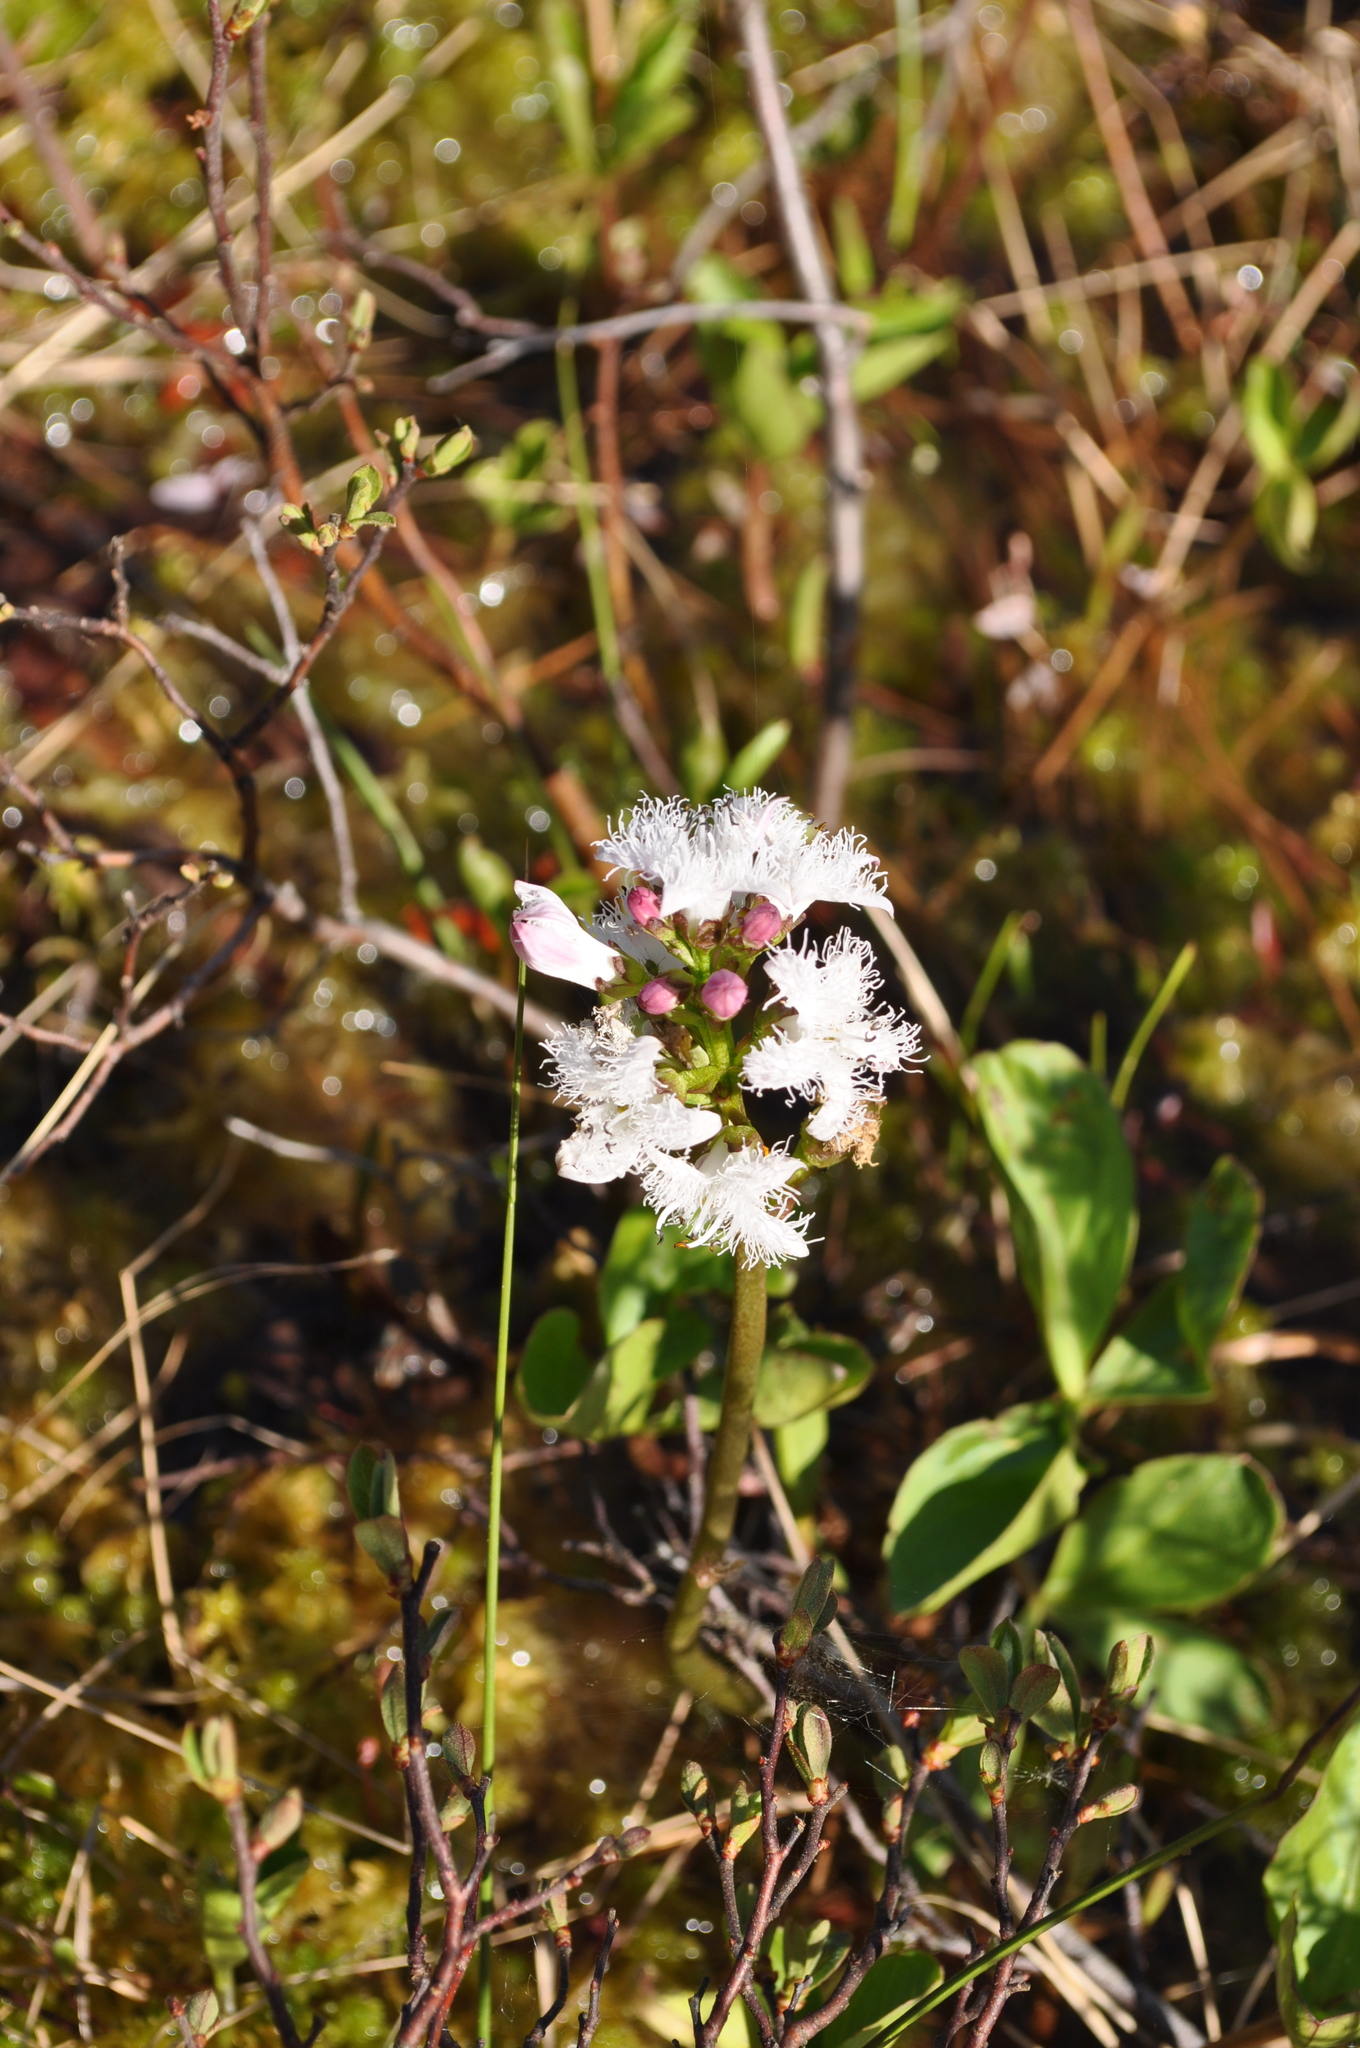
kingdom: Plantae
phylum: Tracheophyta
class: Magnoliopsida
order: Asterales
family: Menyanthaceae
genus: Menyanthes
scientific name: Menyanthes trifoliata
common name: Bogbean
